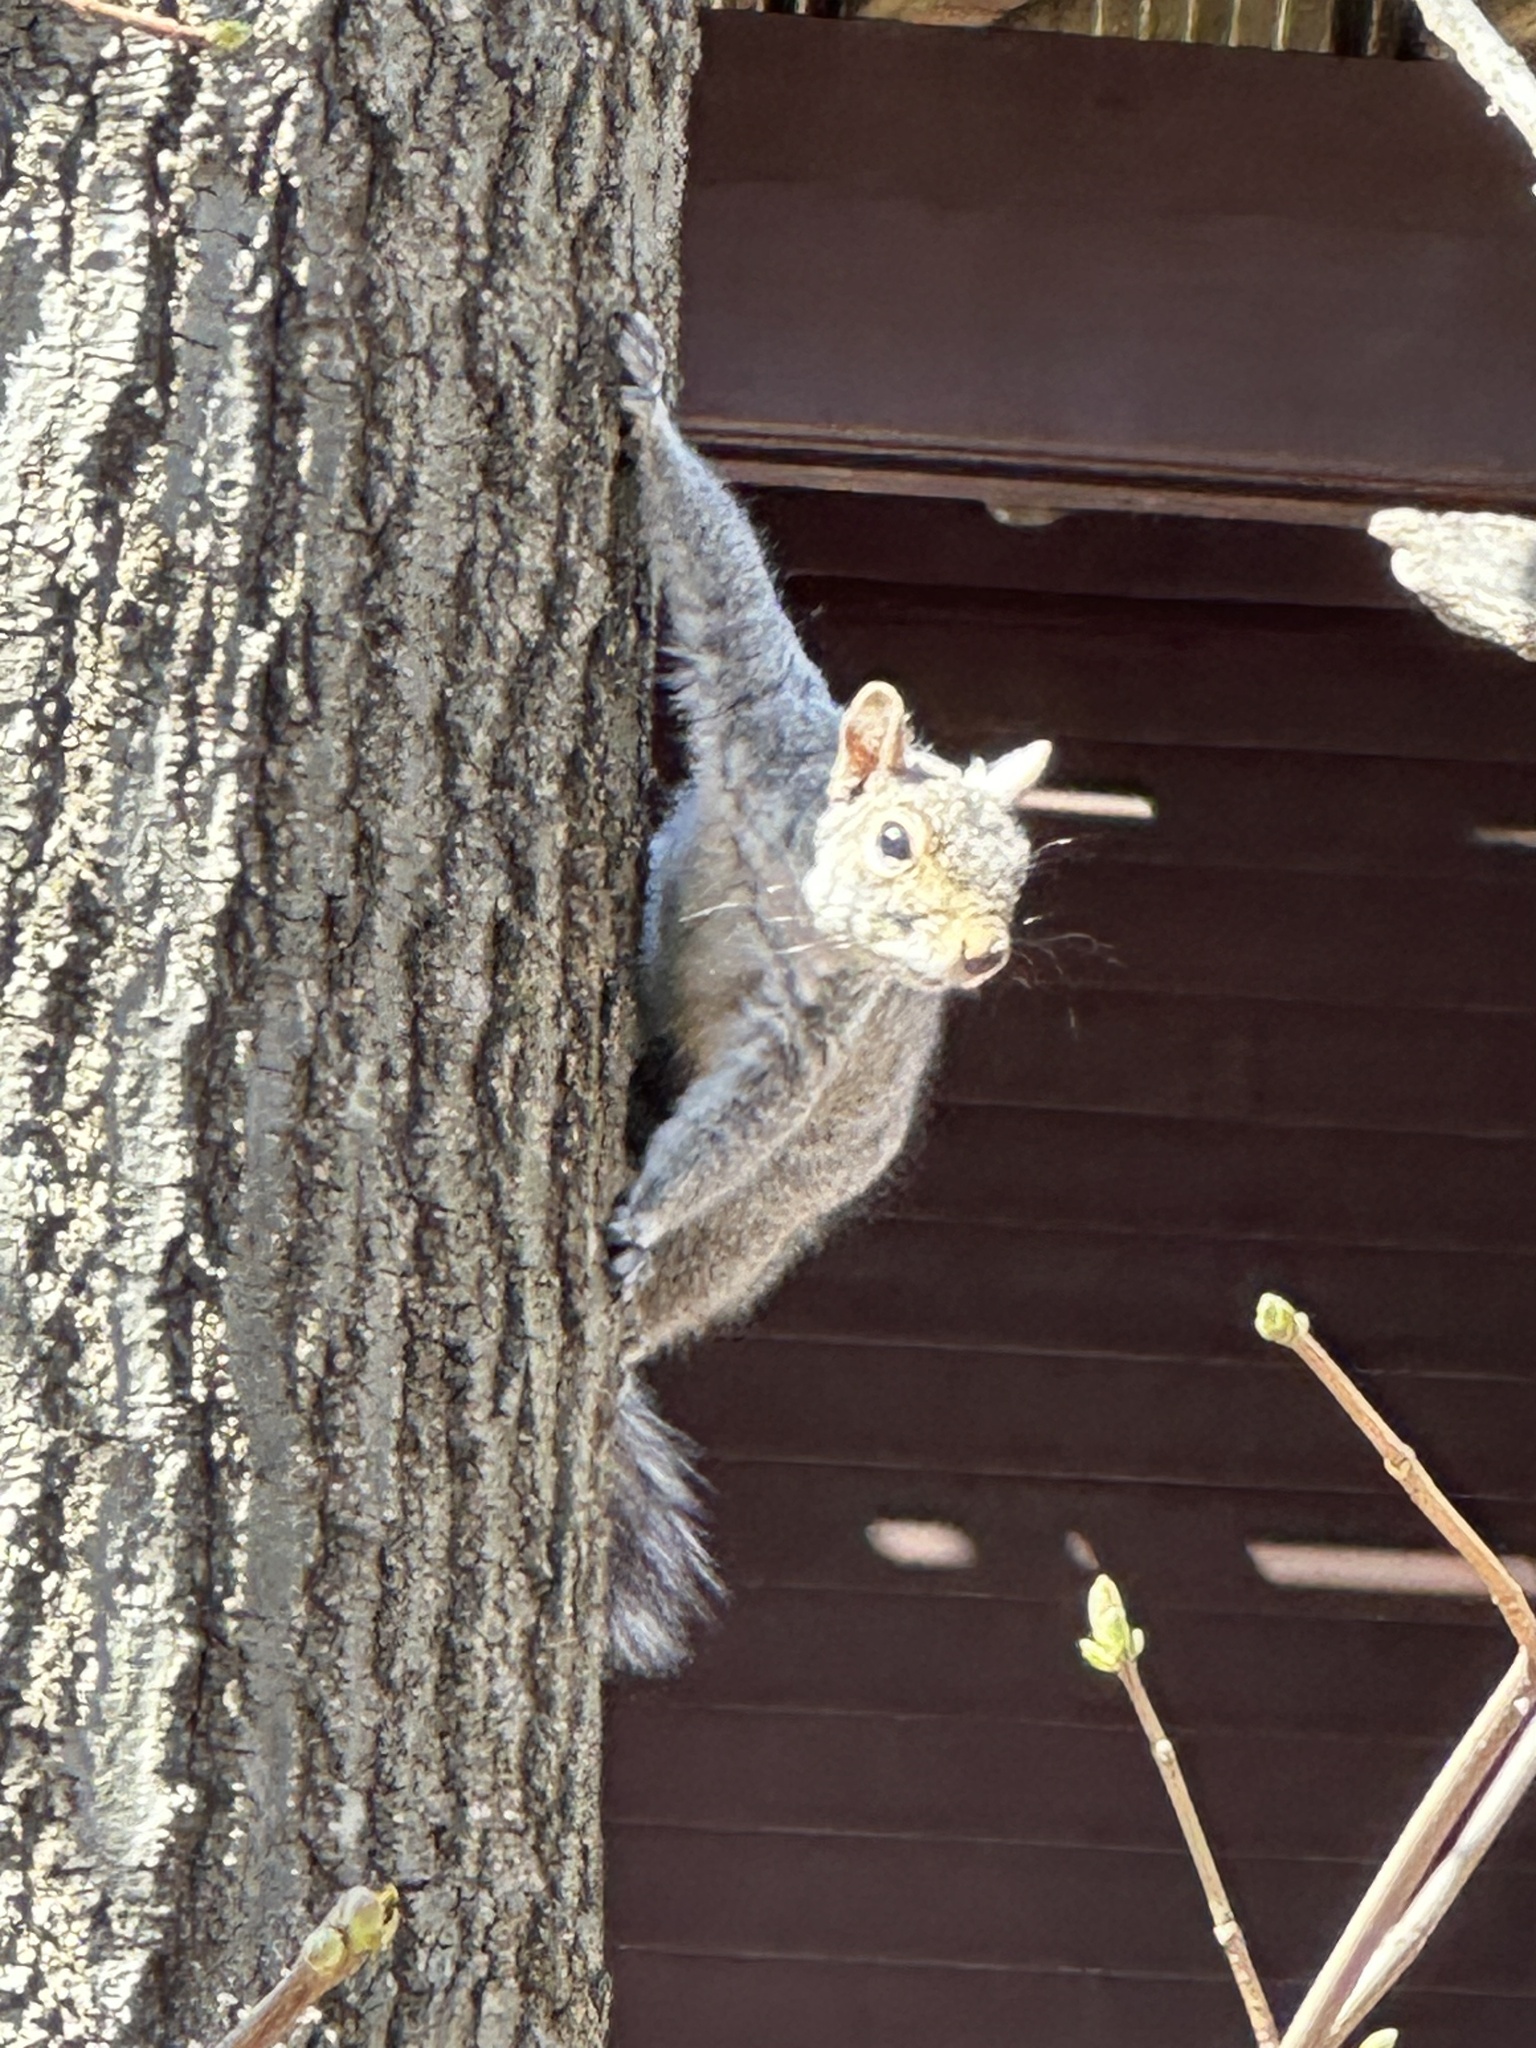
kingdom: Animalia
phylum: Chordata
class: Mammalia
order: Rodentia
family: Sciuridae
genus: Sciurus
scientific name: Sciurus carolinensis
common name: Eastern gray squirrel
